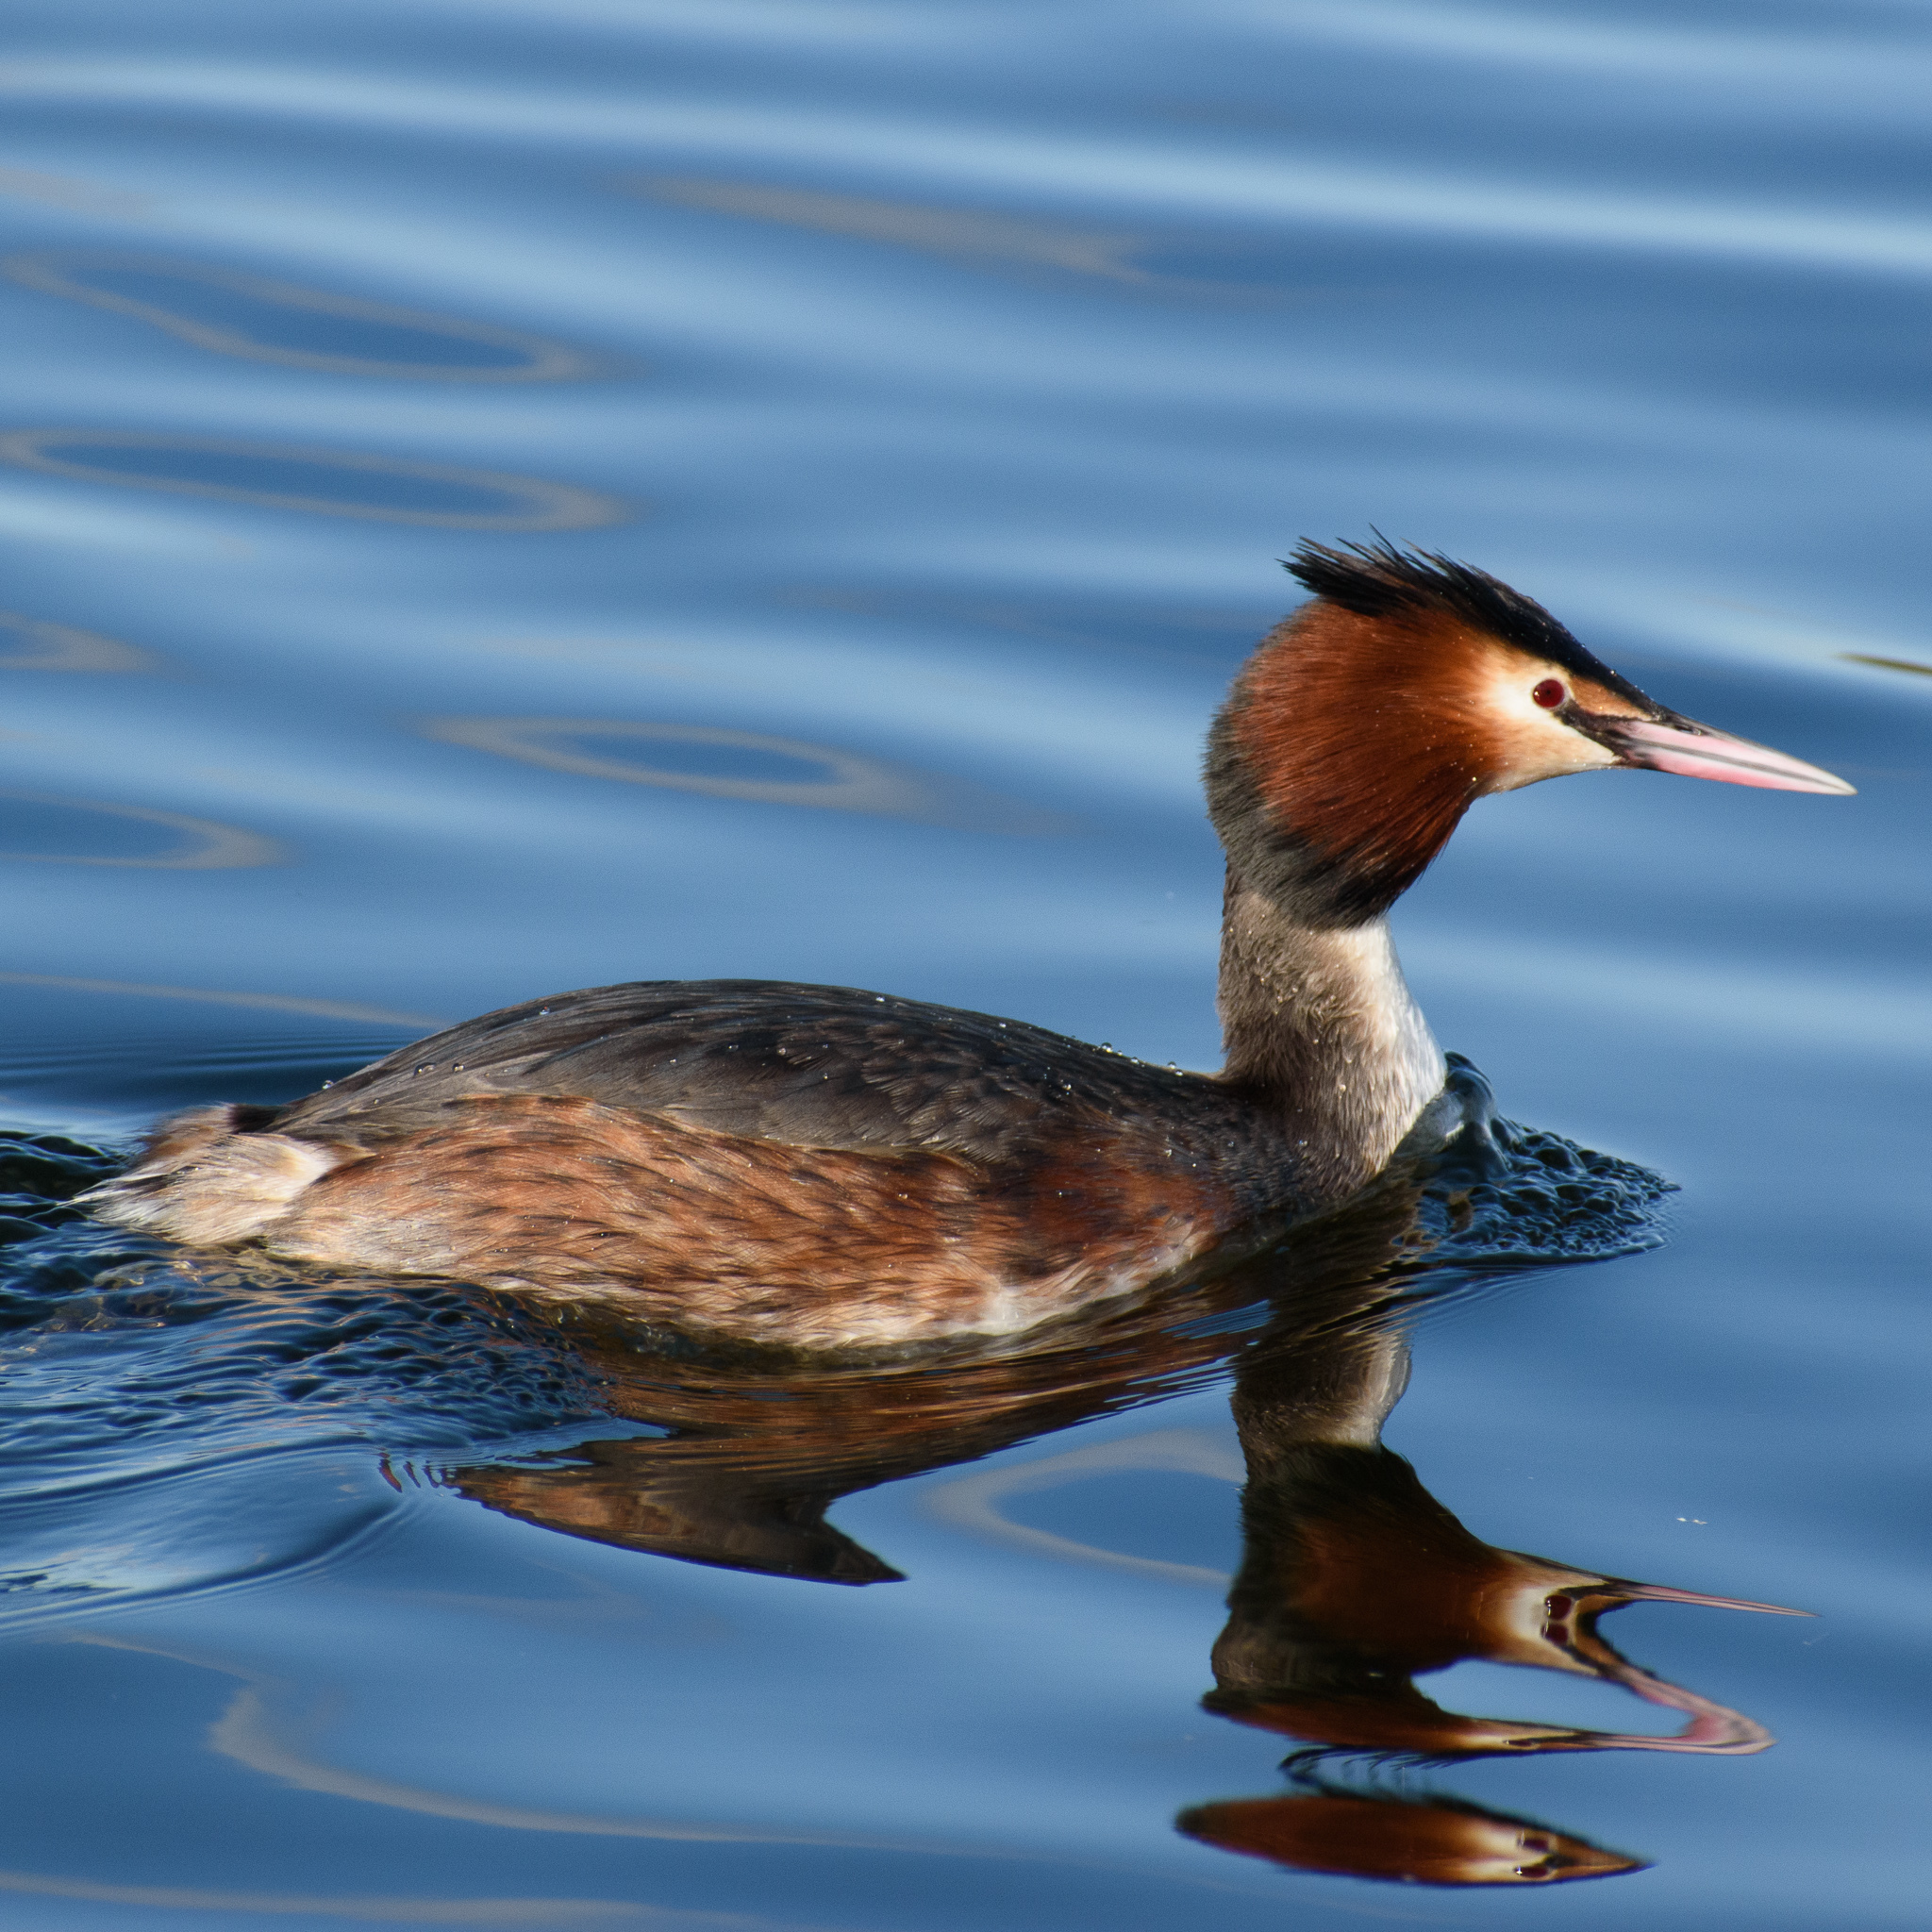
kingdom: Animalia
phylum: Chordata
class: Aves
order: Podicipediformes
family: Podicipedidae
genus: Podiceps
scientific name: Podiceps cristatus
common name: Great crested grebe
